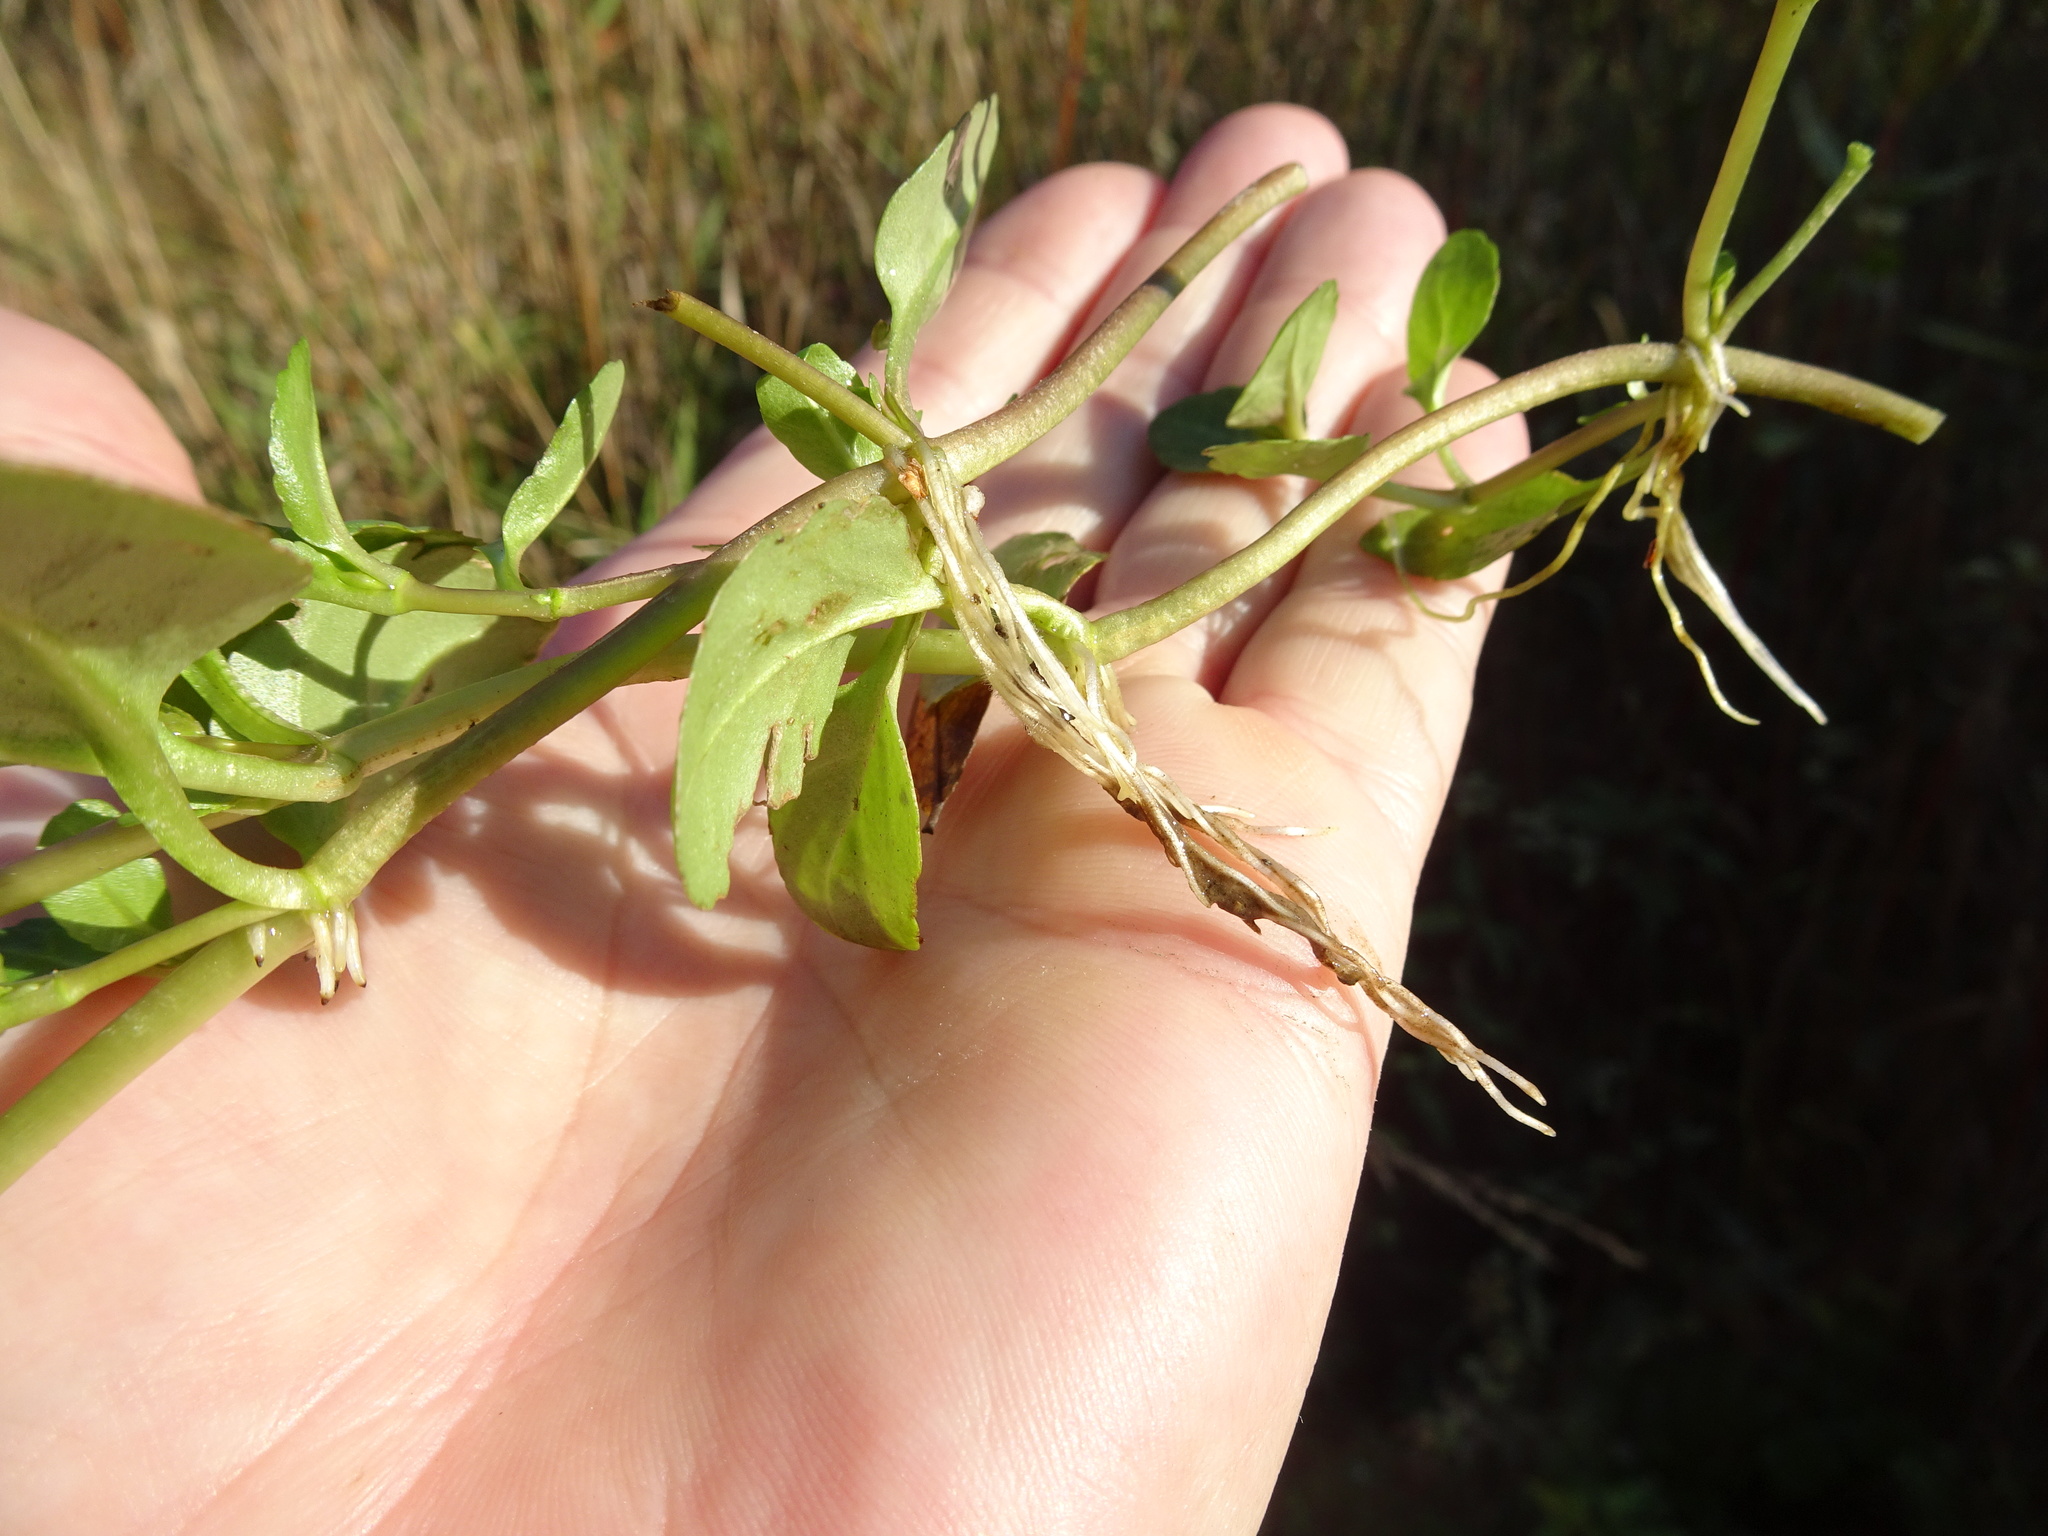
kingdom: Plantae
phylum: Tracheophyta
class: Magnoliopsida
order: Lamiales
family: Plantaginaceae
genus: Veronica
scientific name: Veronica beccabunga
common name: Brooklime
